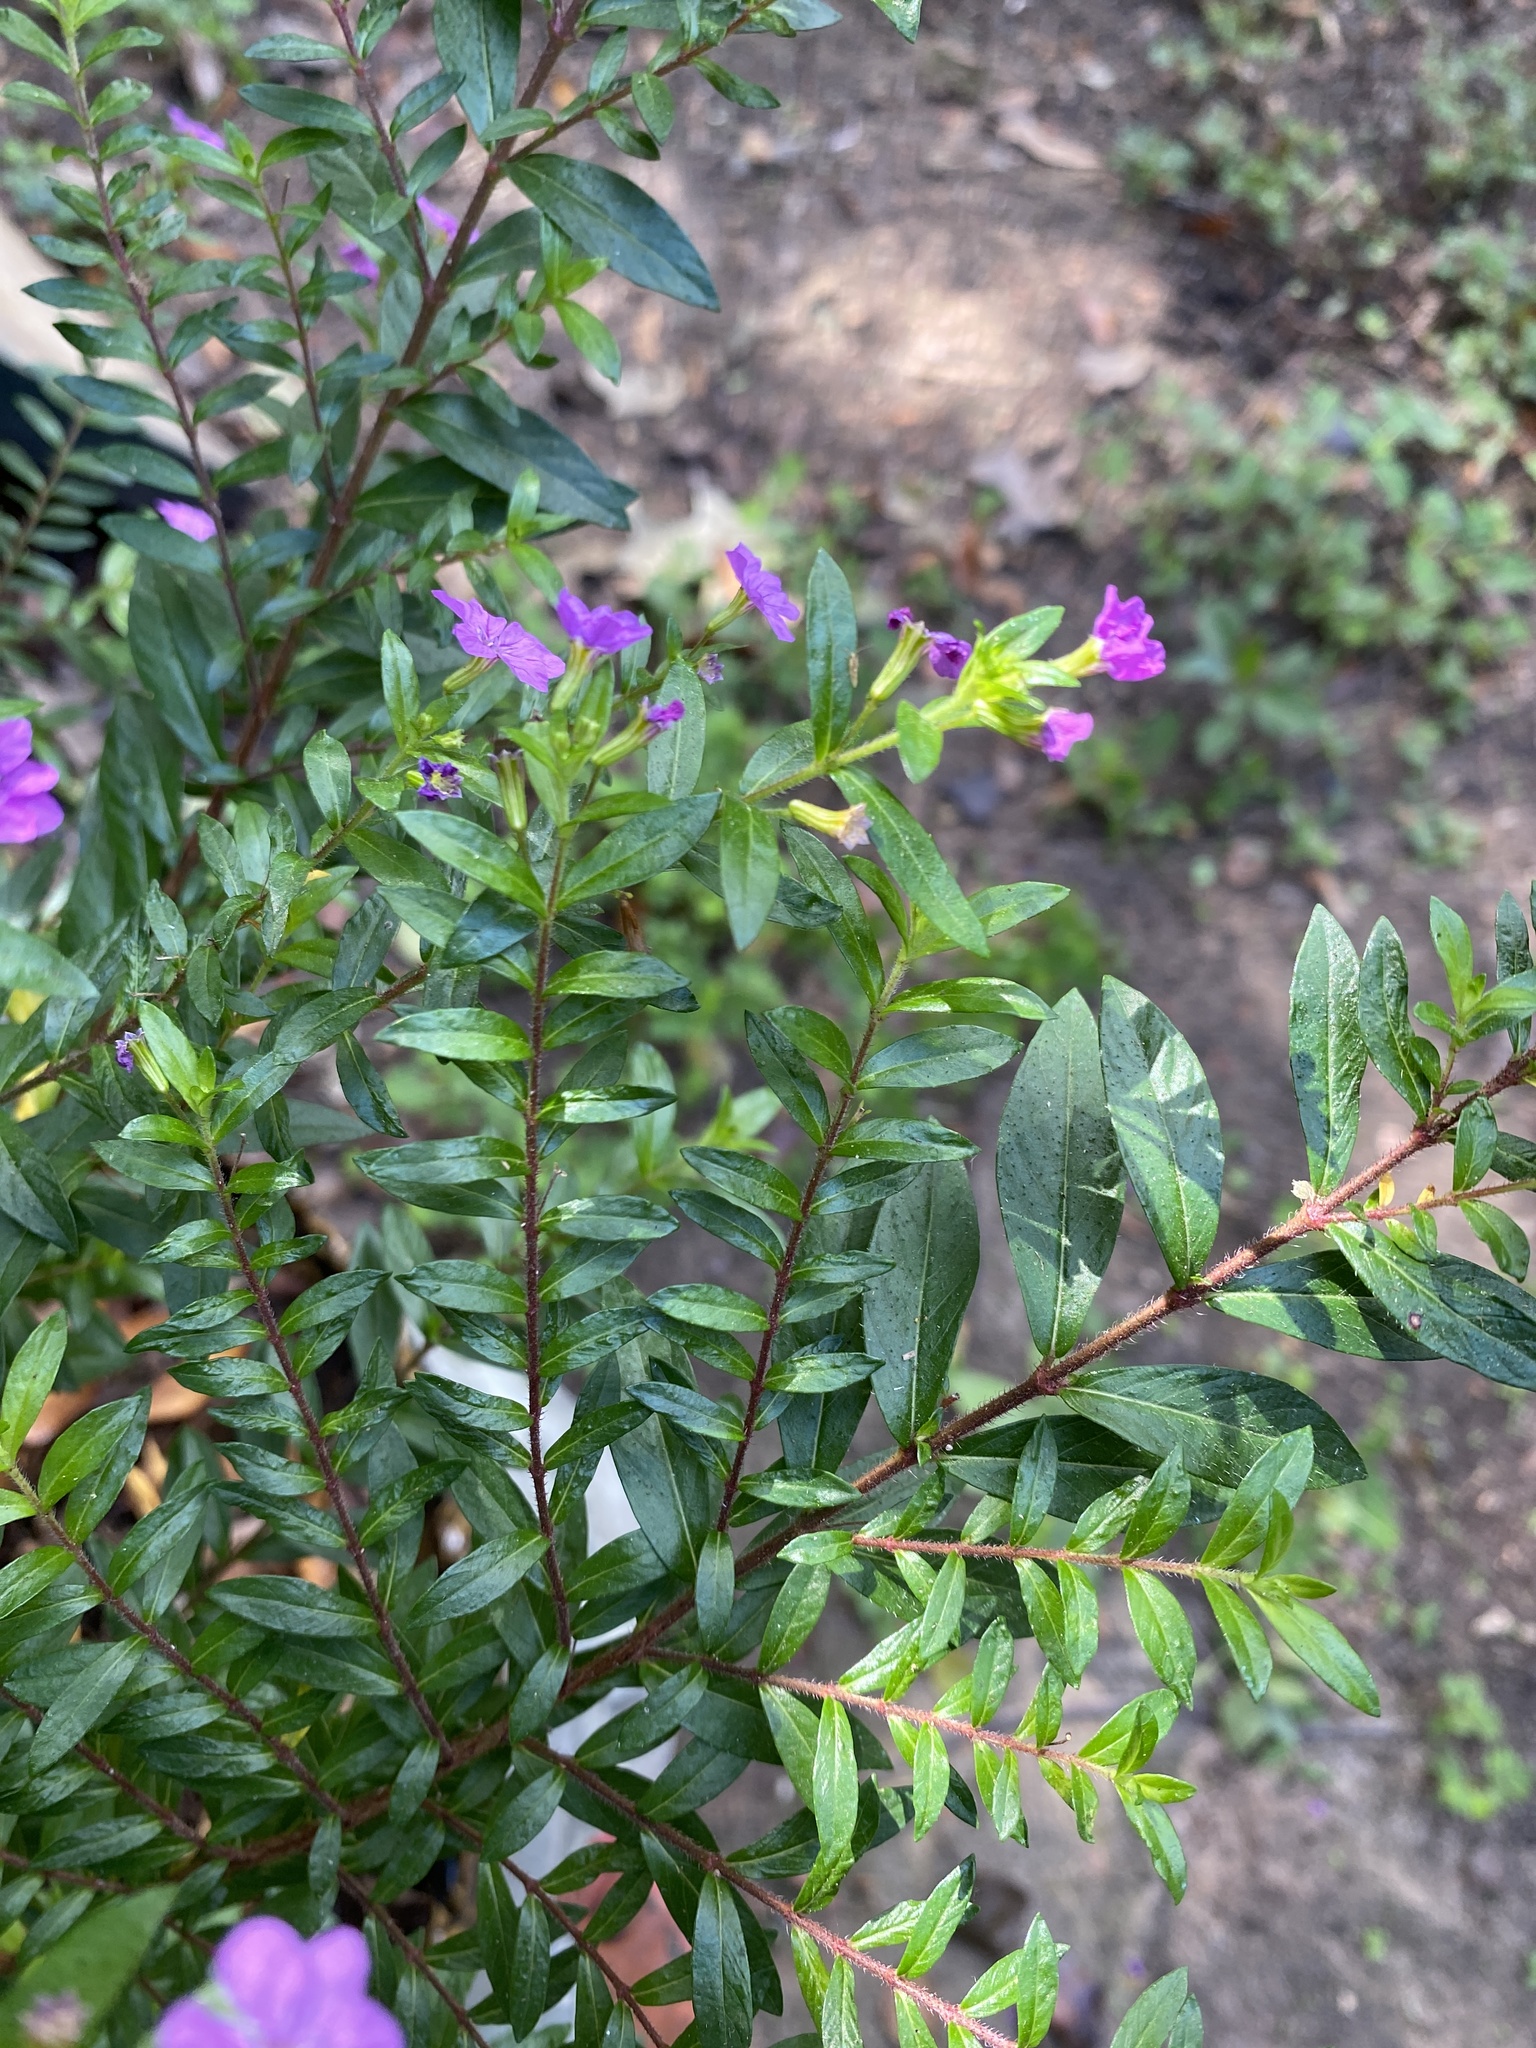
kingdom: Plantae
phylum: Tracheophyta
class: Magnoliopsida
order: Myrtales
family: Lythraceae
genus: Cuphea
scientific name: Cuphea hyssopifolia
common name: False heather
